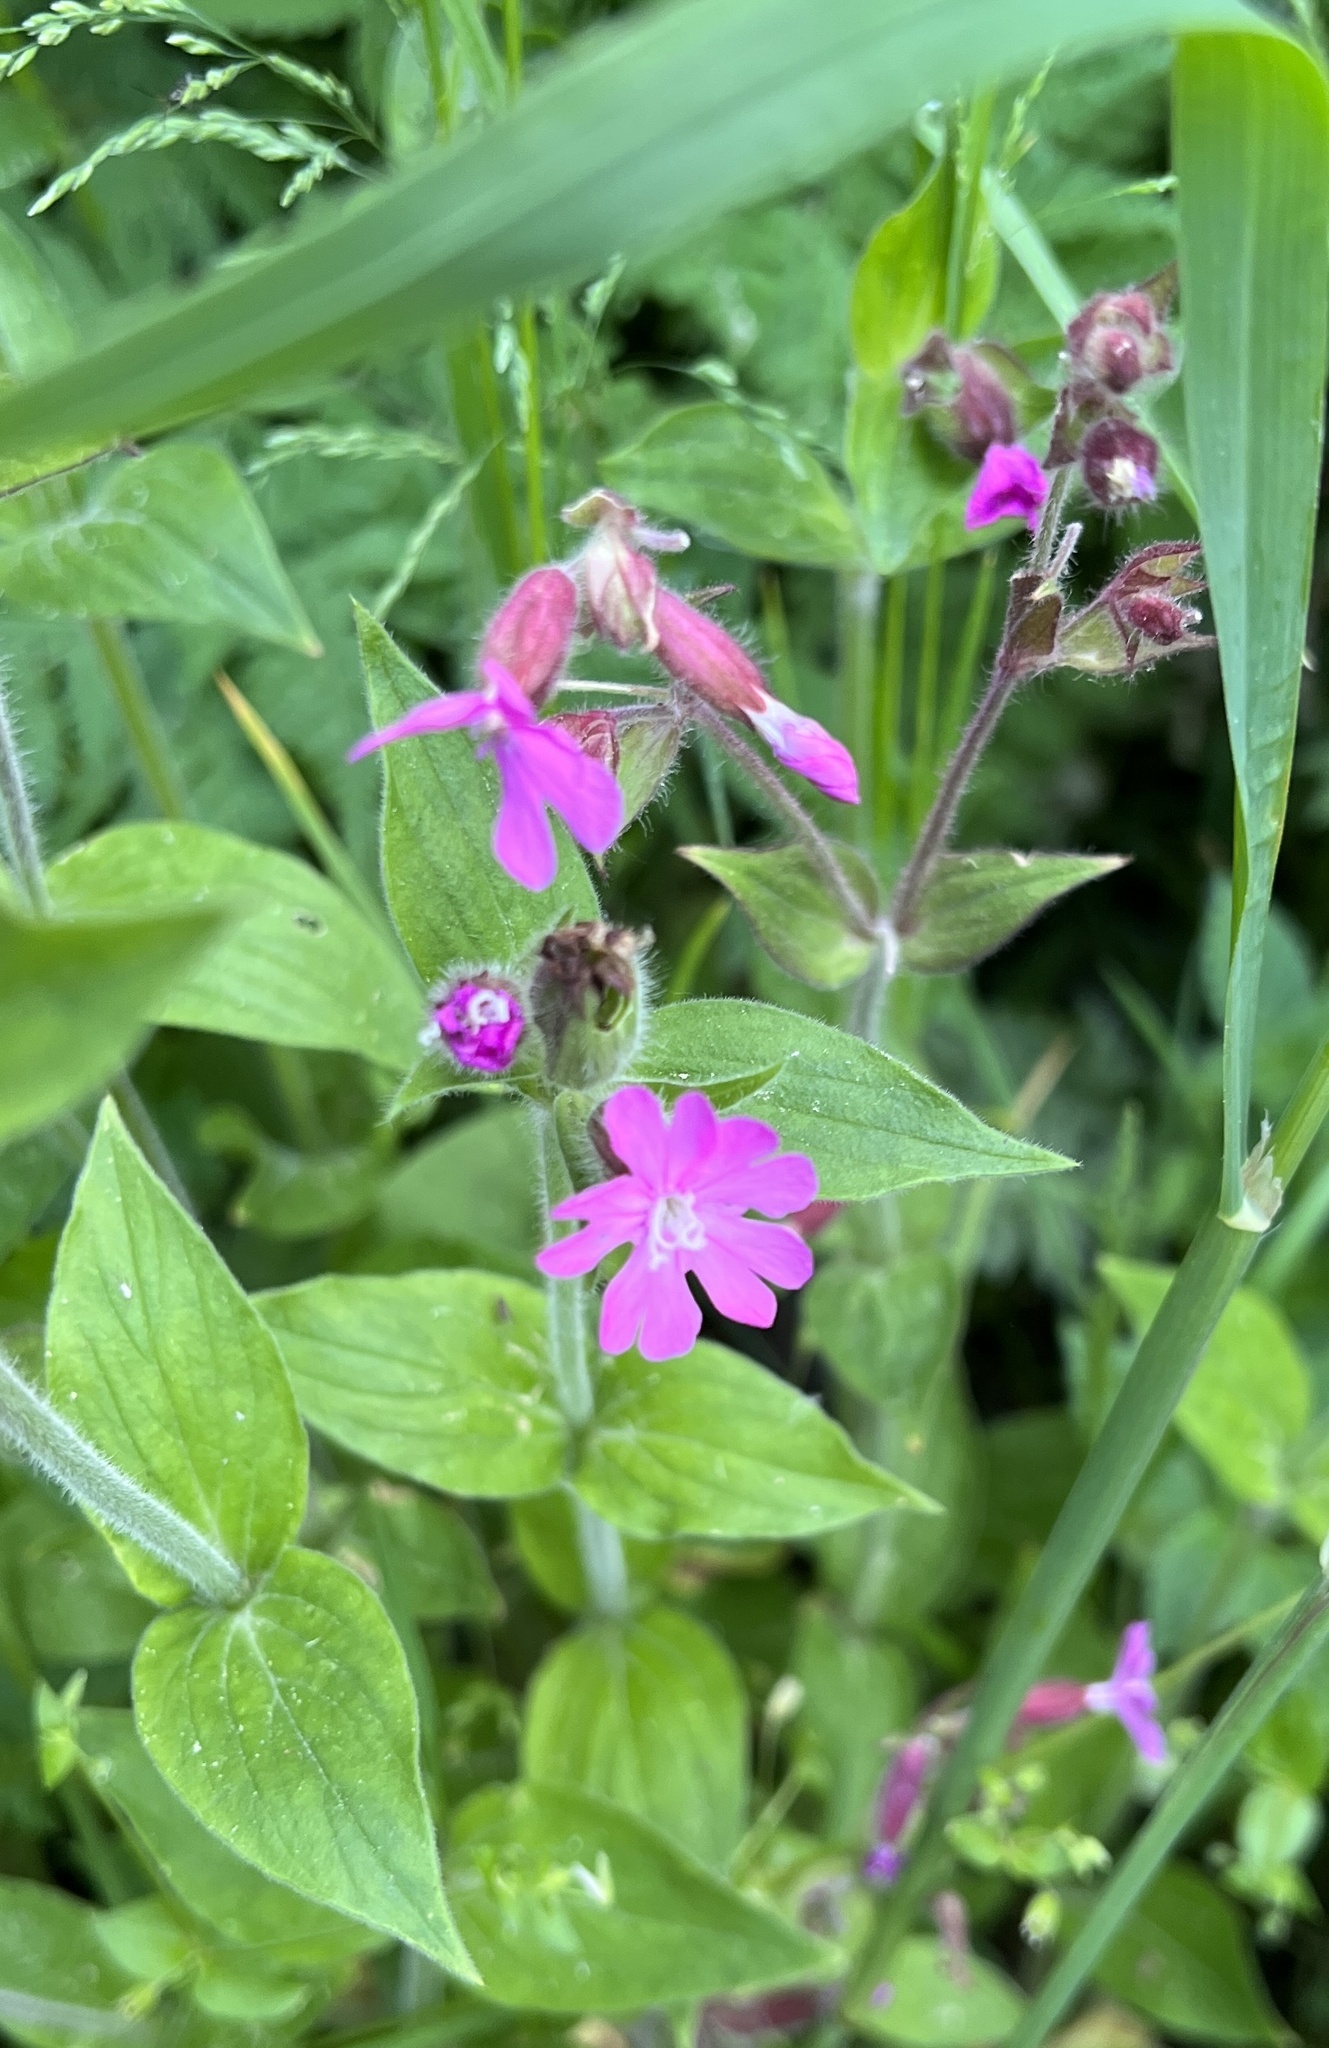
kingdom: Plantae
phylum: Tracheophyta
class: Magnoliopsida
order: Caryophyllales
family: Caryophyllaceae
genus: Silene
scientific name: Silene dioica
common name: Red campion
